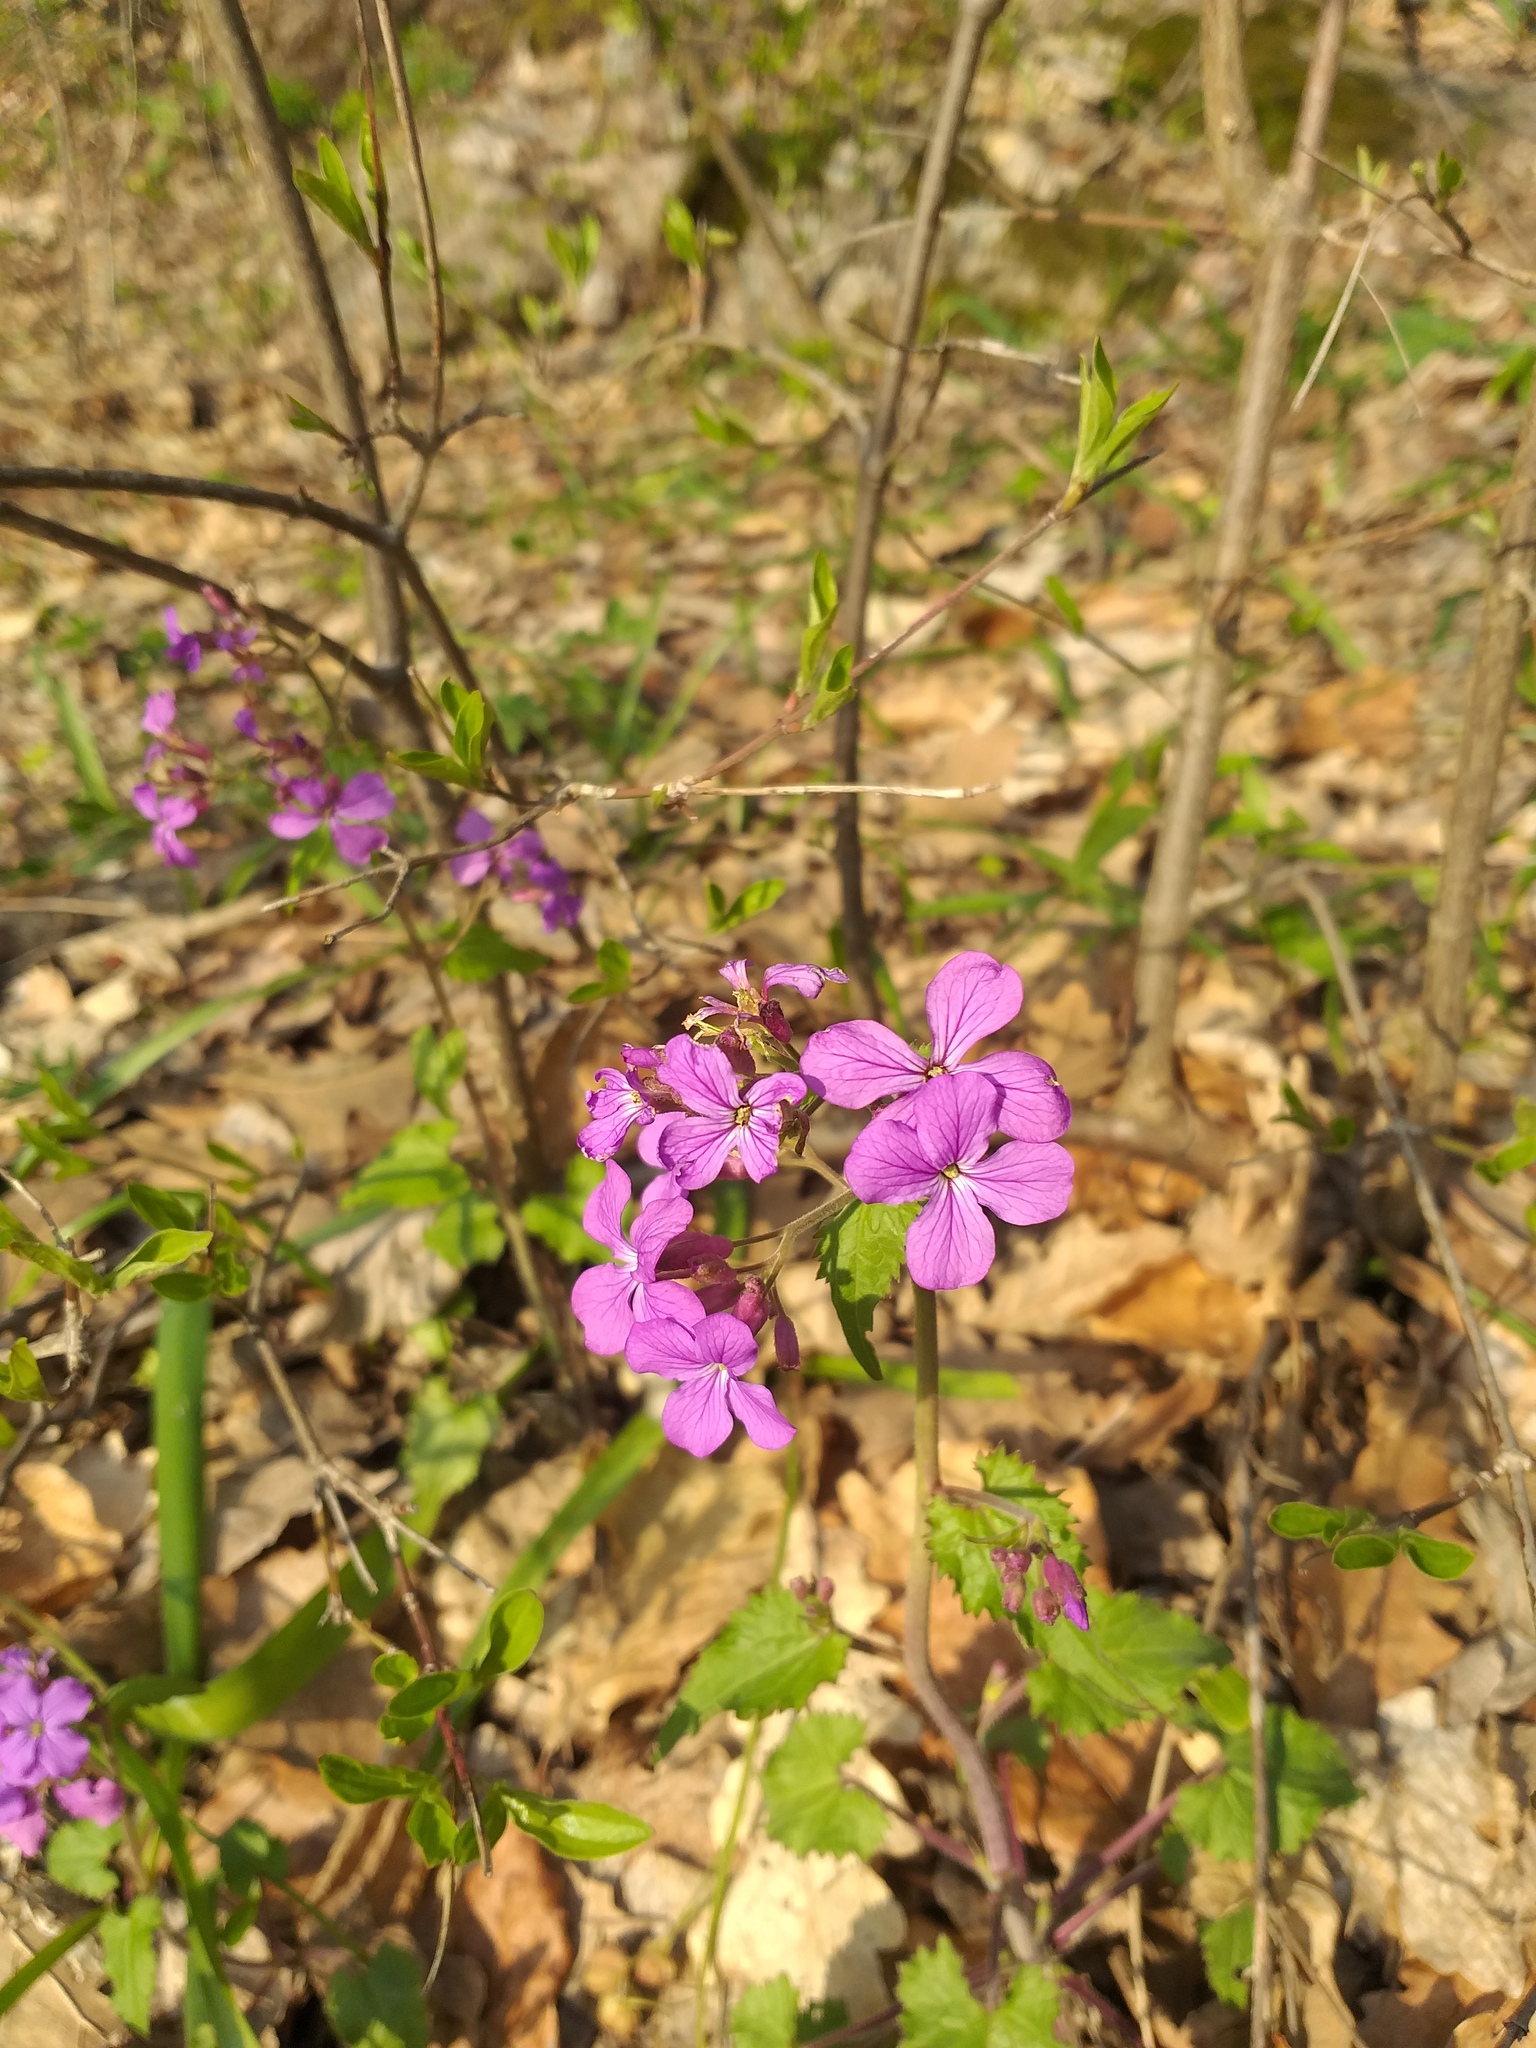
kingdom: Plantae
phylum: Tracheophyta
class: Magnoliopsida
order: Brassicales
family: Brassicaceae
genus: Lunaria
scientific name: Lunaria annua
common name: Honesty
